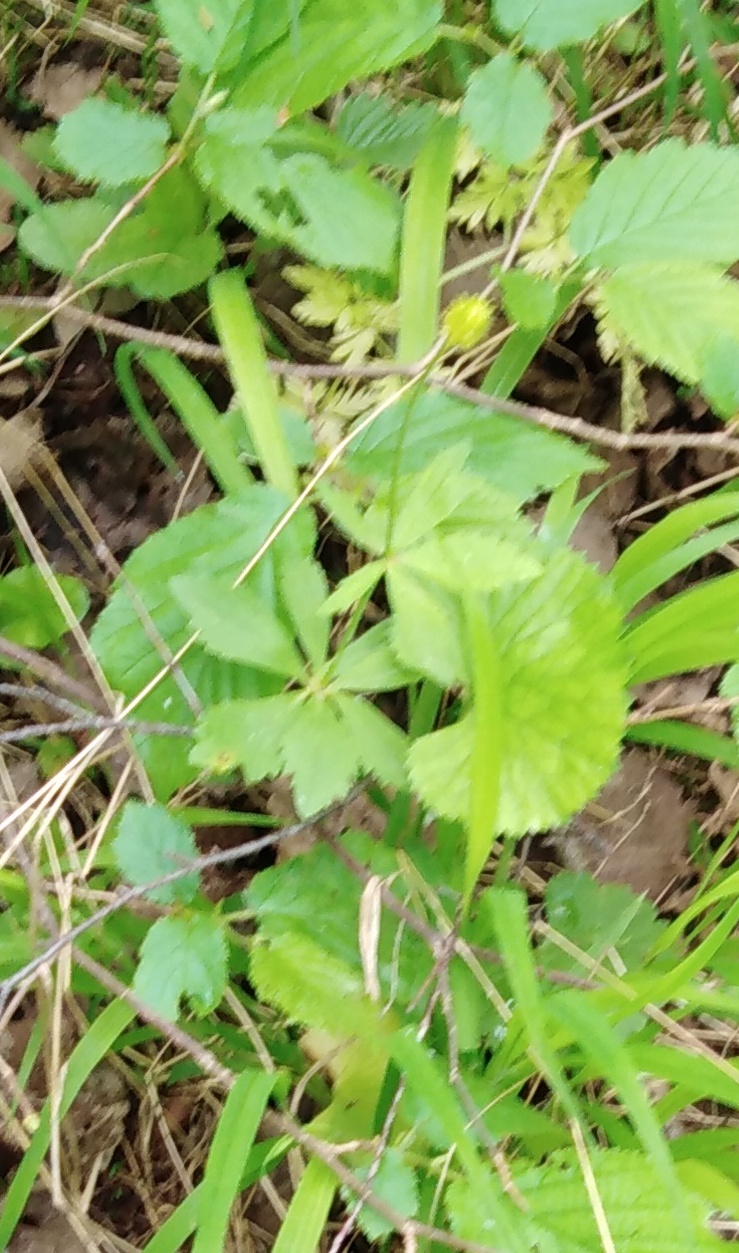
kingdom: Plantae
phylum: Tracheophyta
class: Magnoliopsida
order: Ranunculales
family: Ranunculaceae
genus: Ranunculus
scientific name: Ranunculus cassubicus
